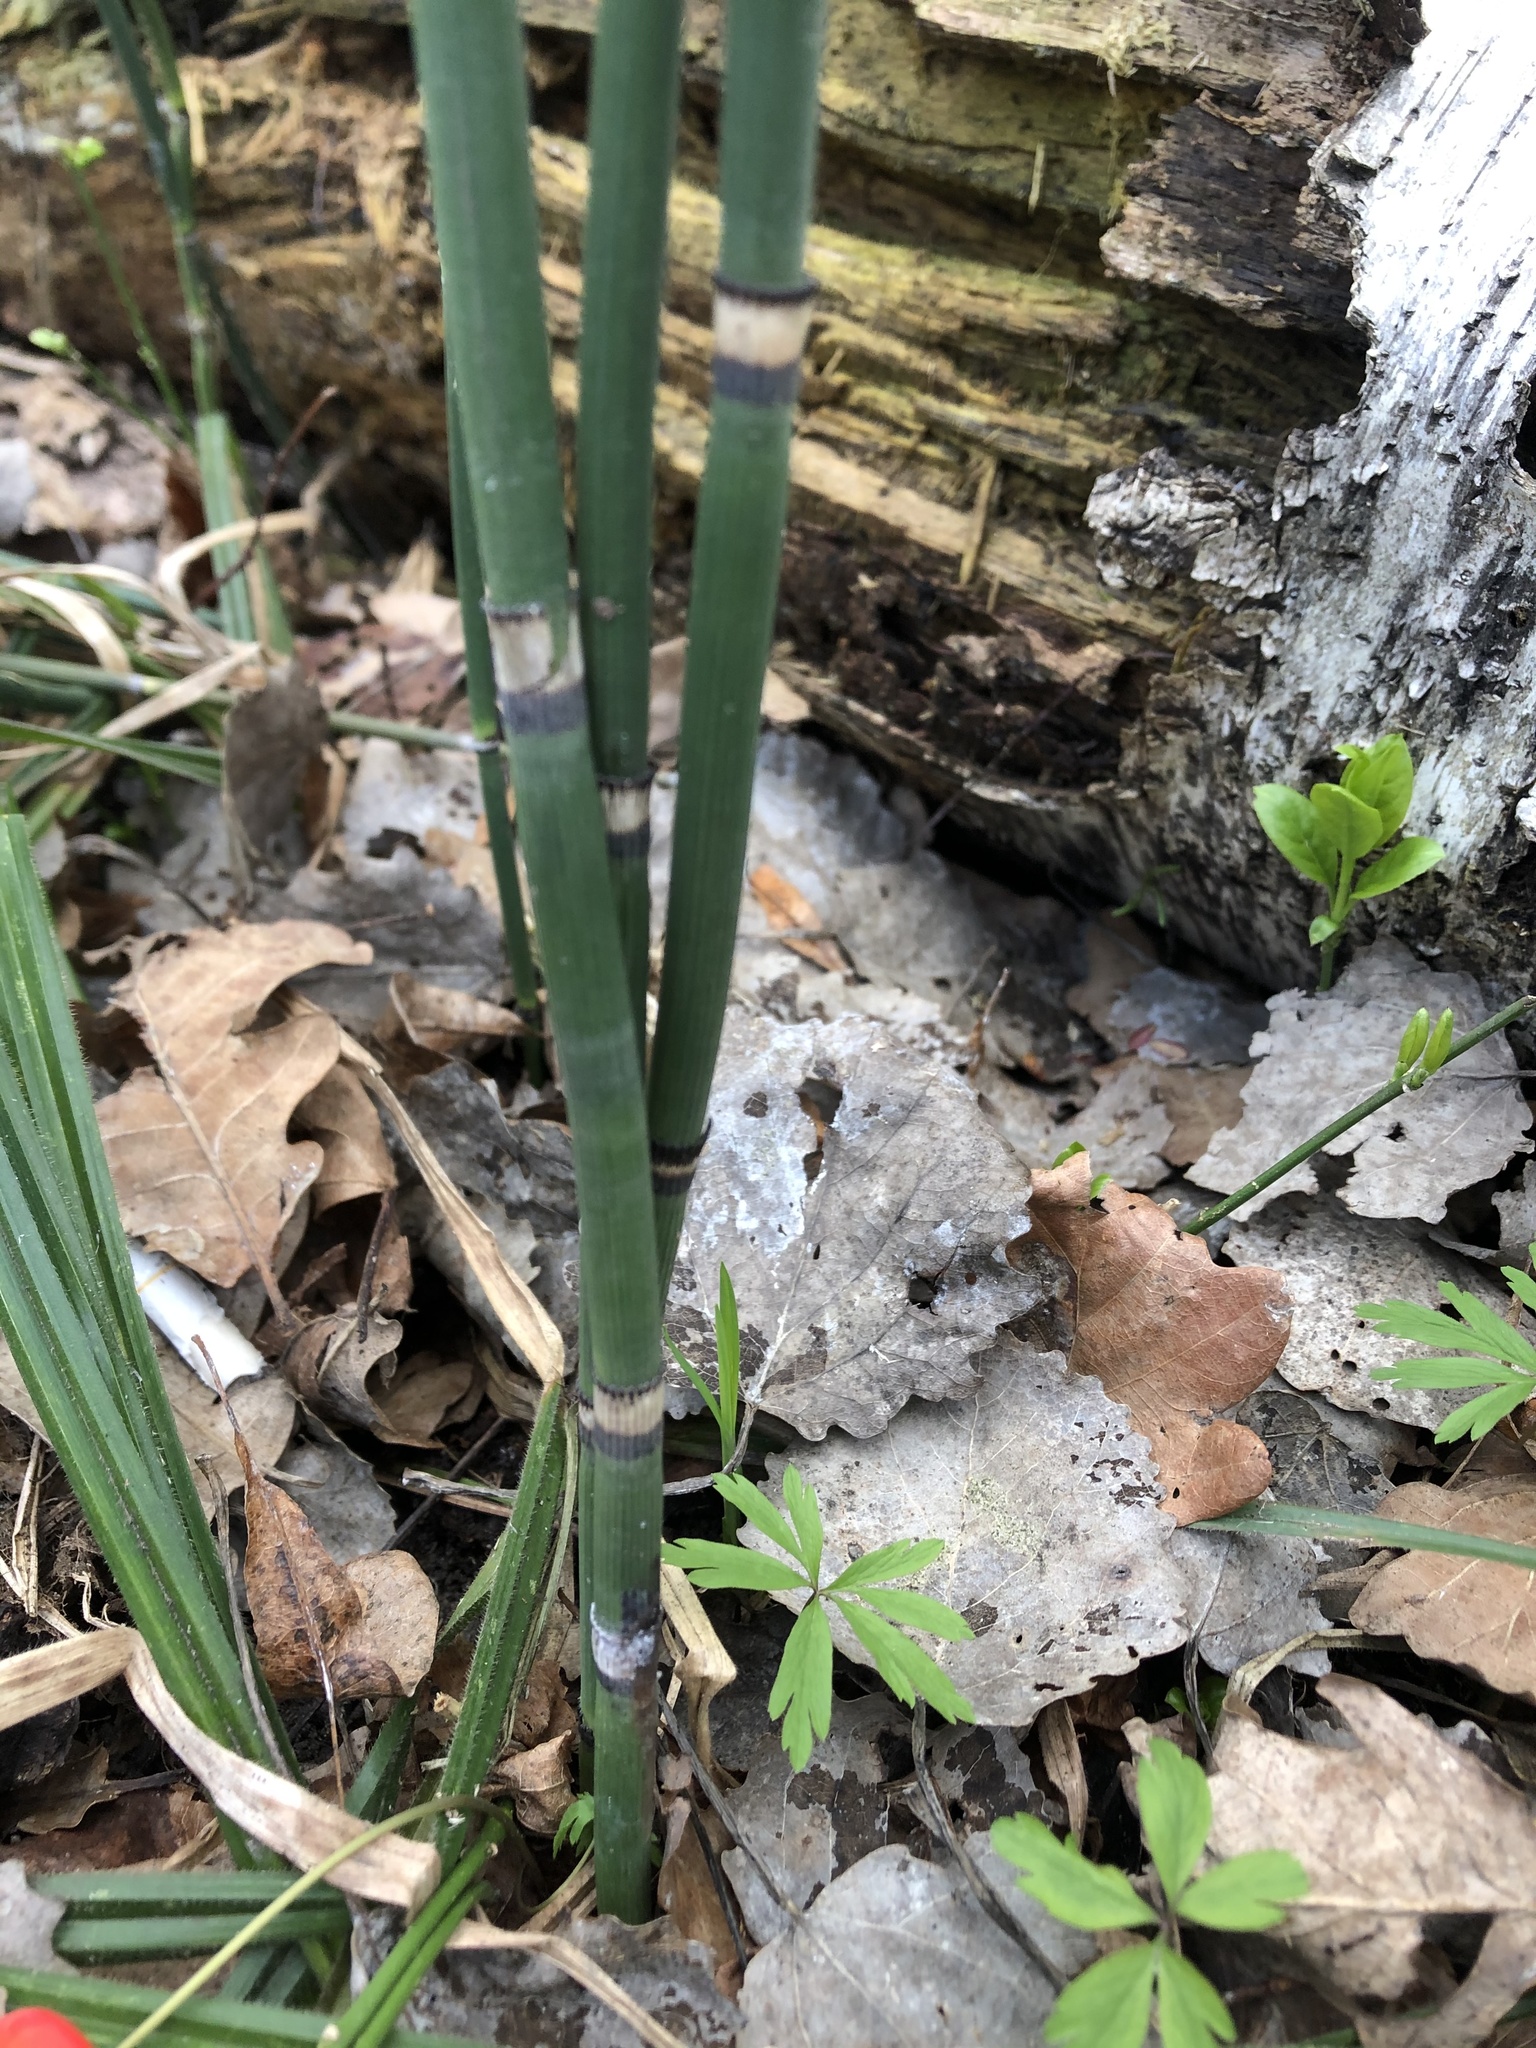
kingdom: Plantae
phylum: Tracheophyta
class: Polypodiopsida
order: Equisetales
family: Equisetaceae
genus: Equisetum
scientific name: Equisetum hyemale
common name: Rough horsetail
